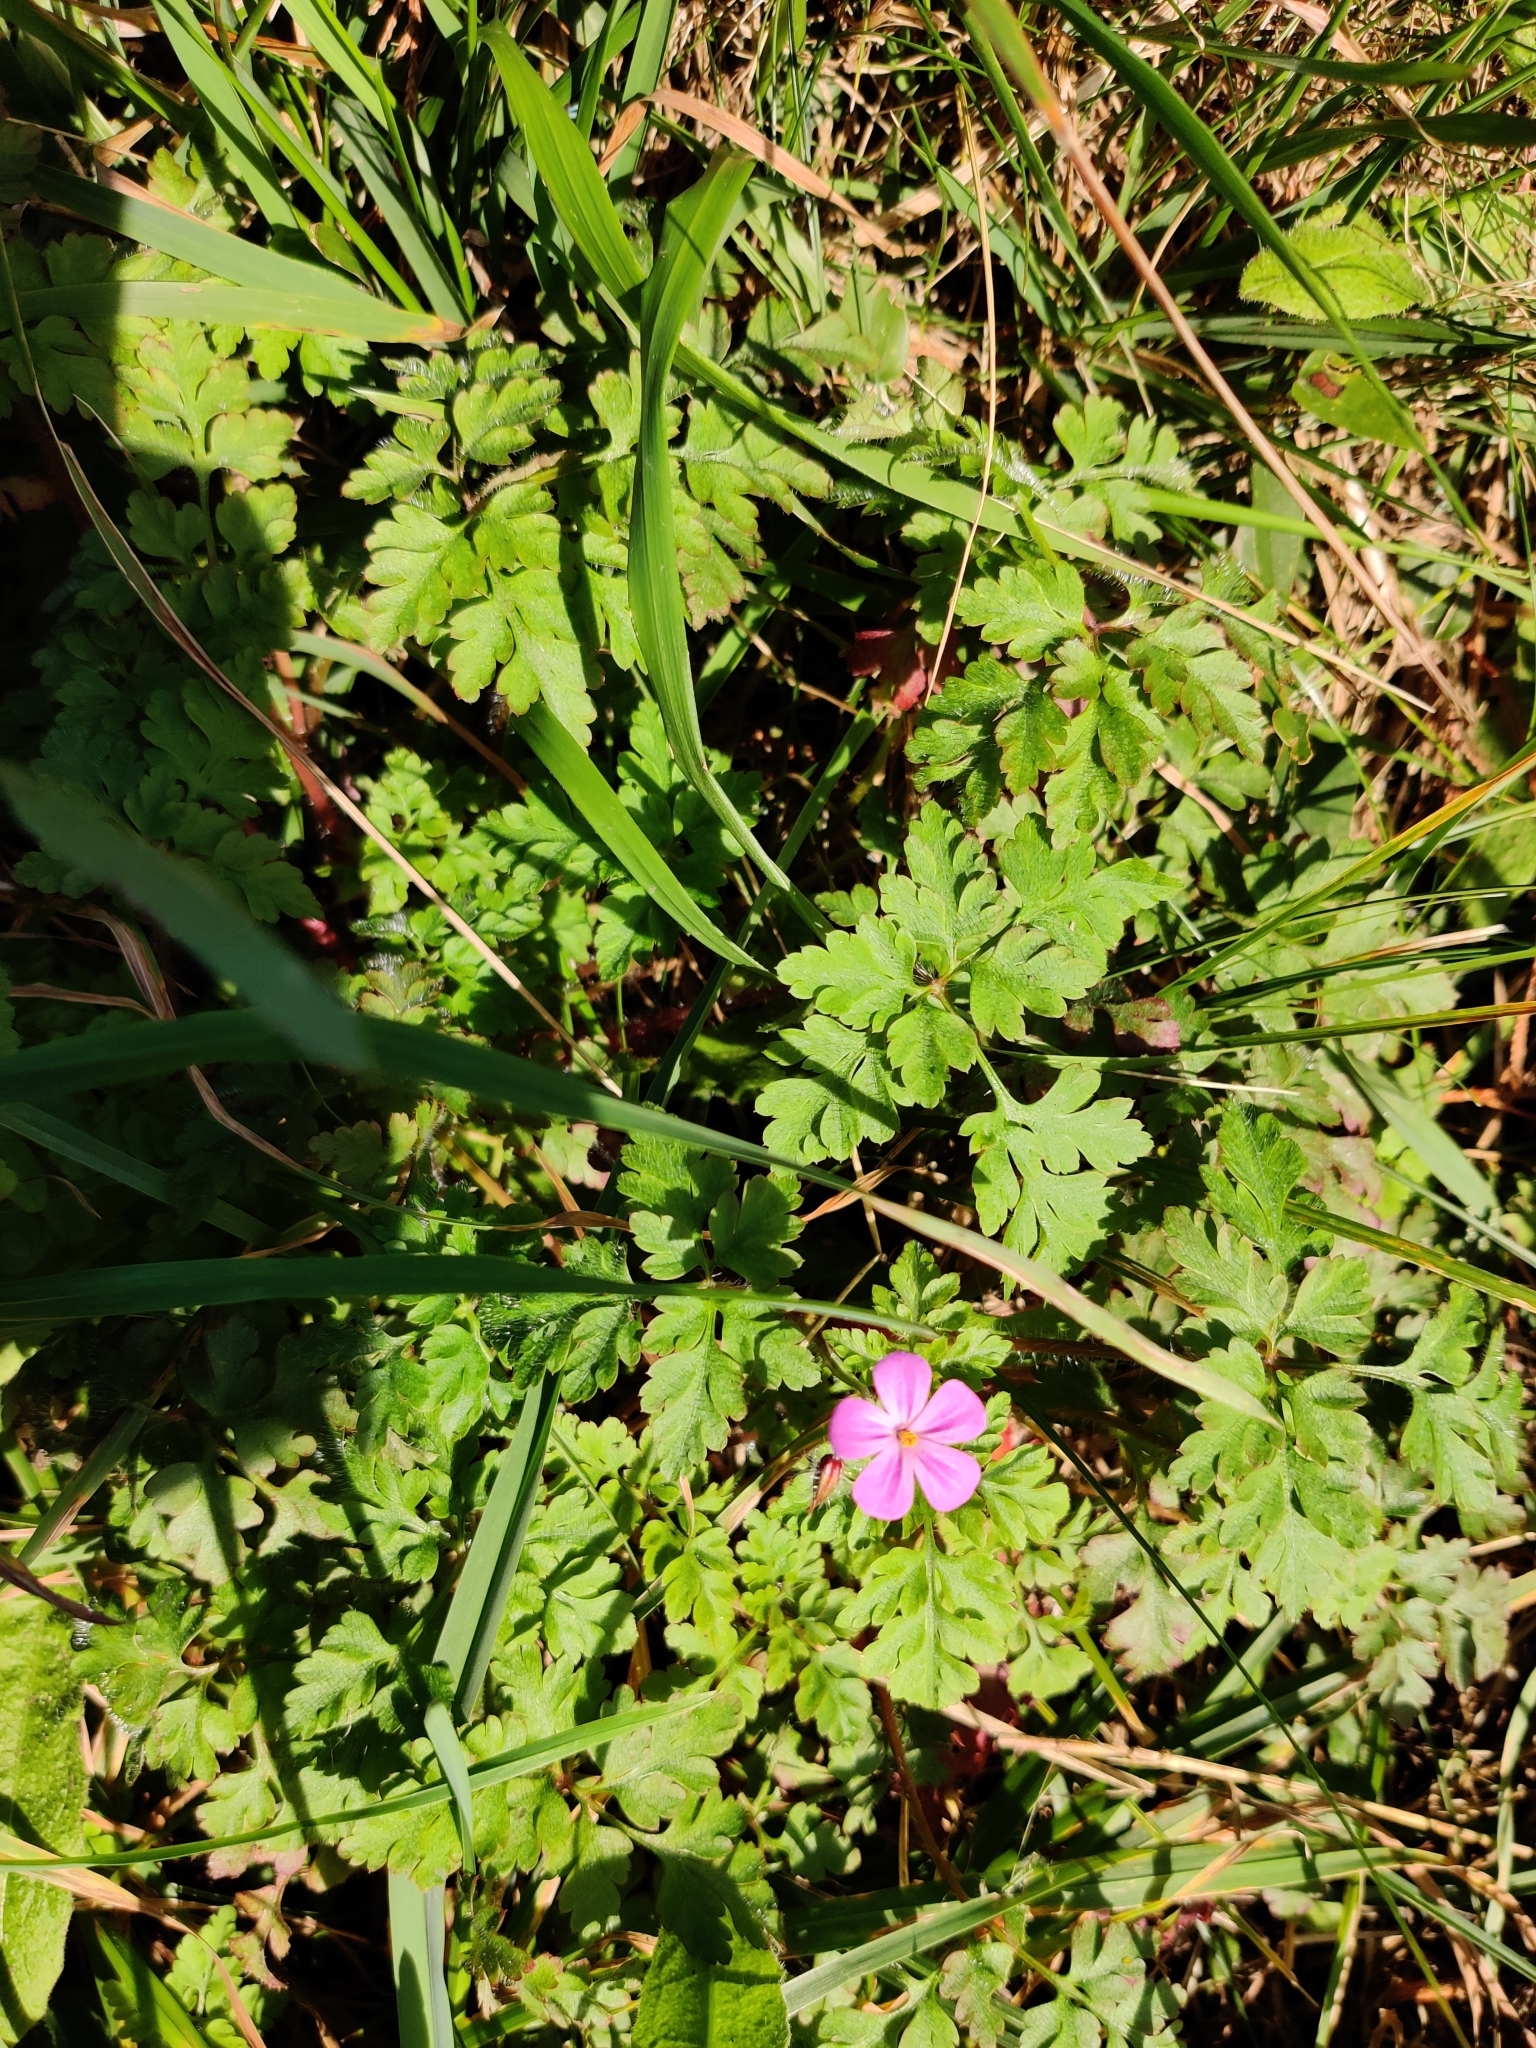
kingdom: Plantae
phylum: Tracheophyta
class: Magnoliopsida
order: Geraniales
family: Geraniaceae
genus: Geranium
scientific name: Geranium robertianum
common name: Herb-robert
